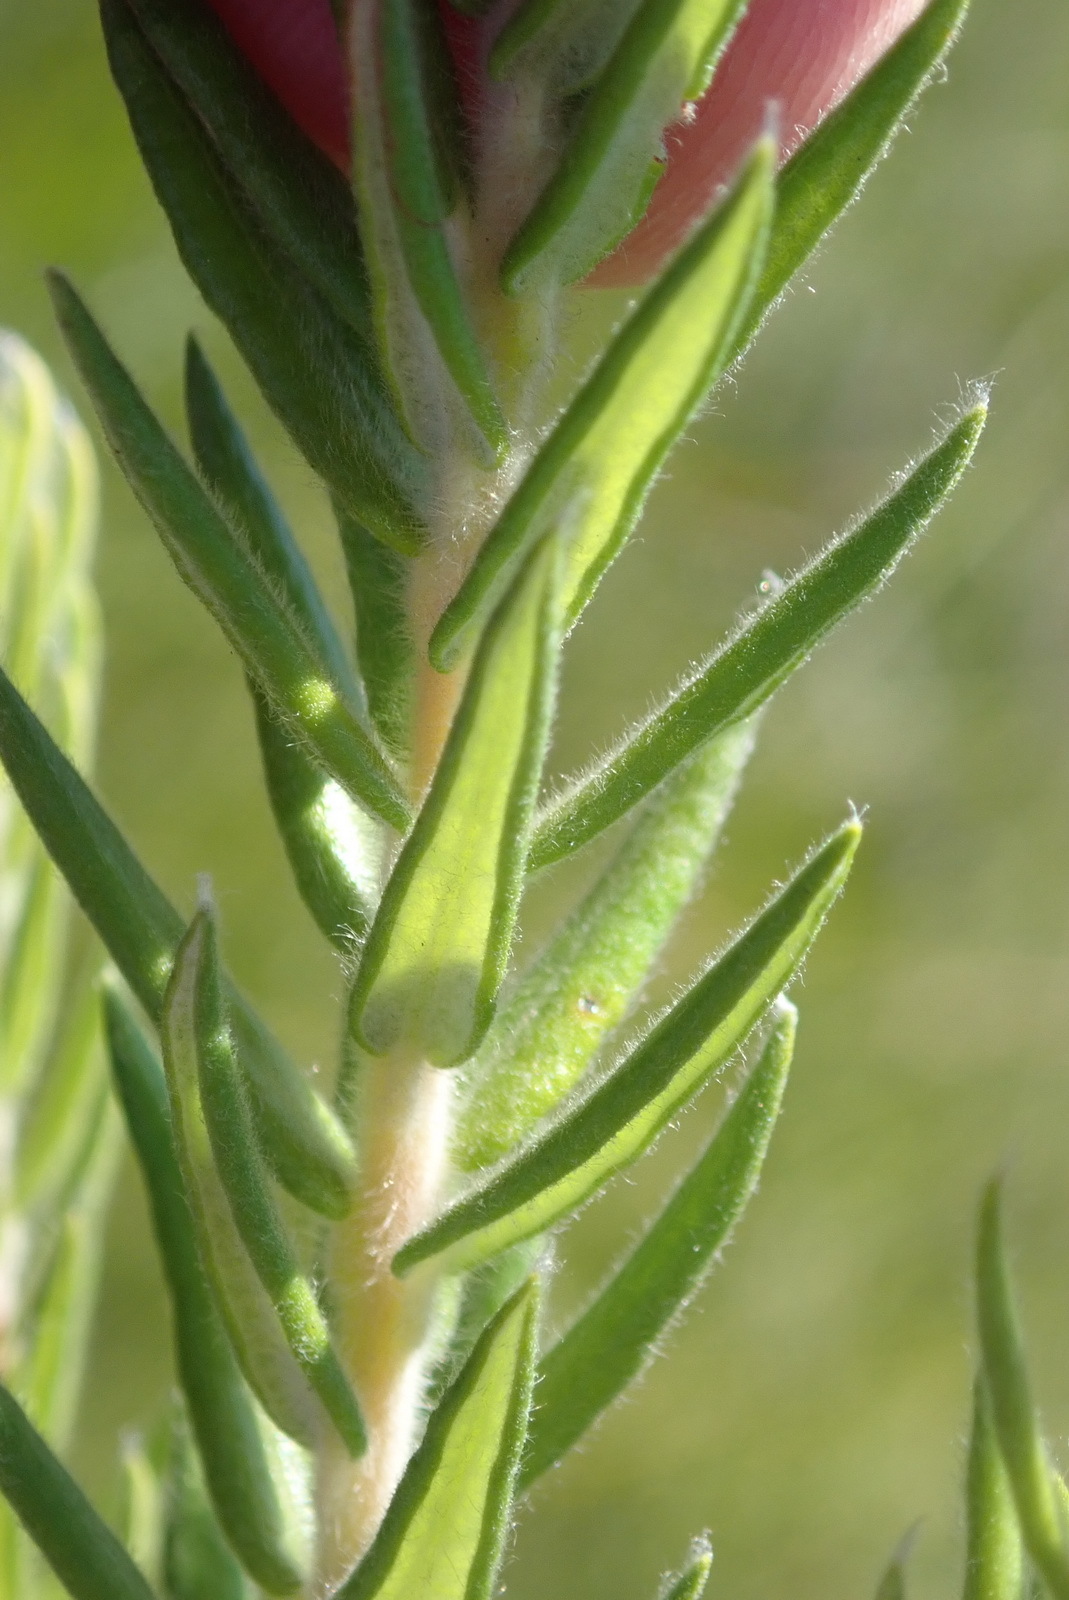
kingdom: Plantae
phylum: Tracheophyta
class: Magnoliopsida
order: Rosales
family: Rhamnaceae
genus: Phylica
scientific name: Phylica pinea
